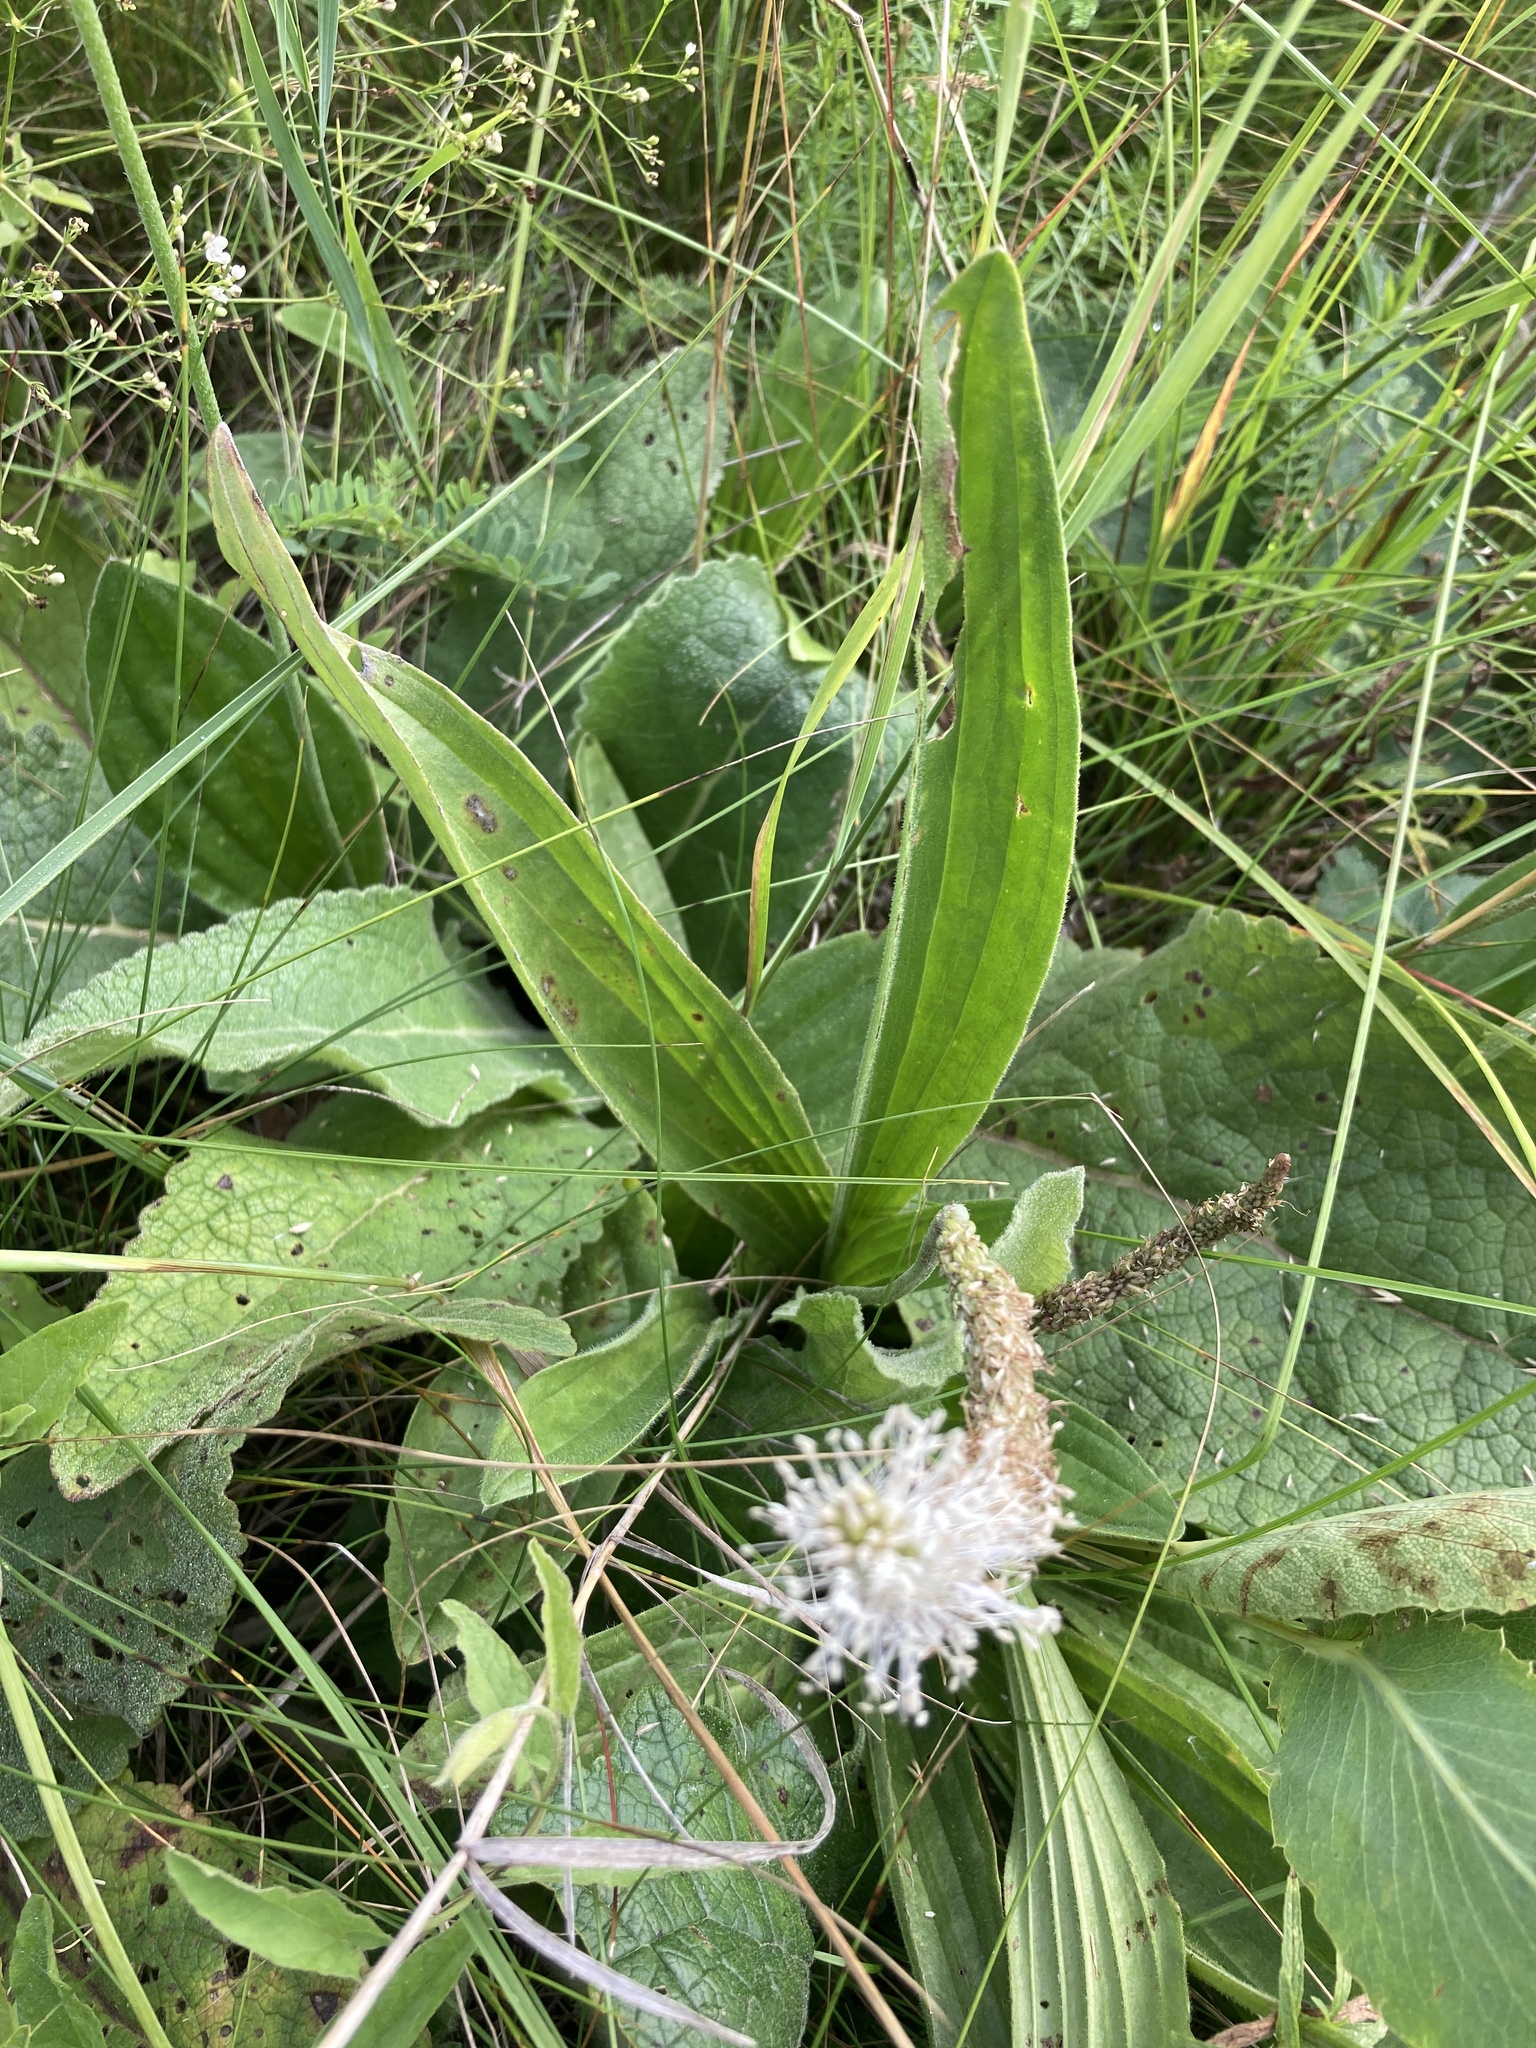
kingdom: Plantae
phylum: Tracheophyta
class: Magnoliopsida
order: Lamiales
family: Plantaginaceae
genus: Plantago
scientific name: Plantago urvillei
